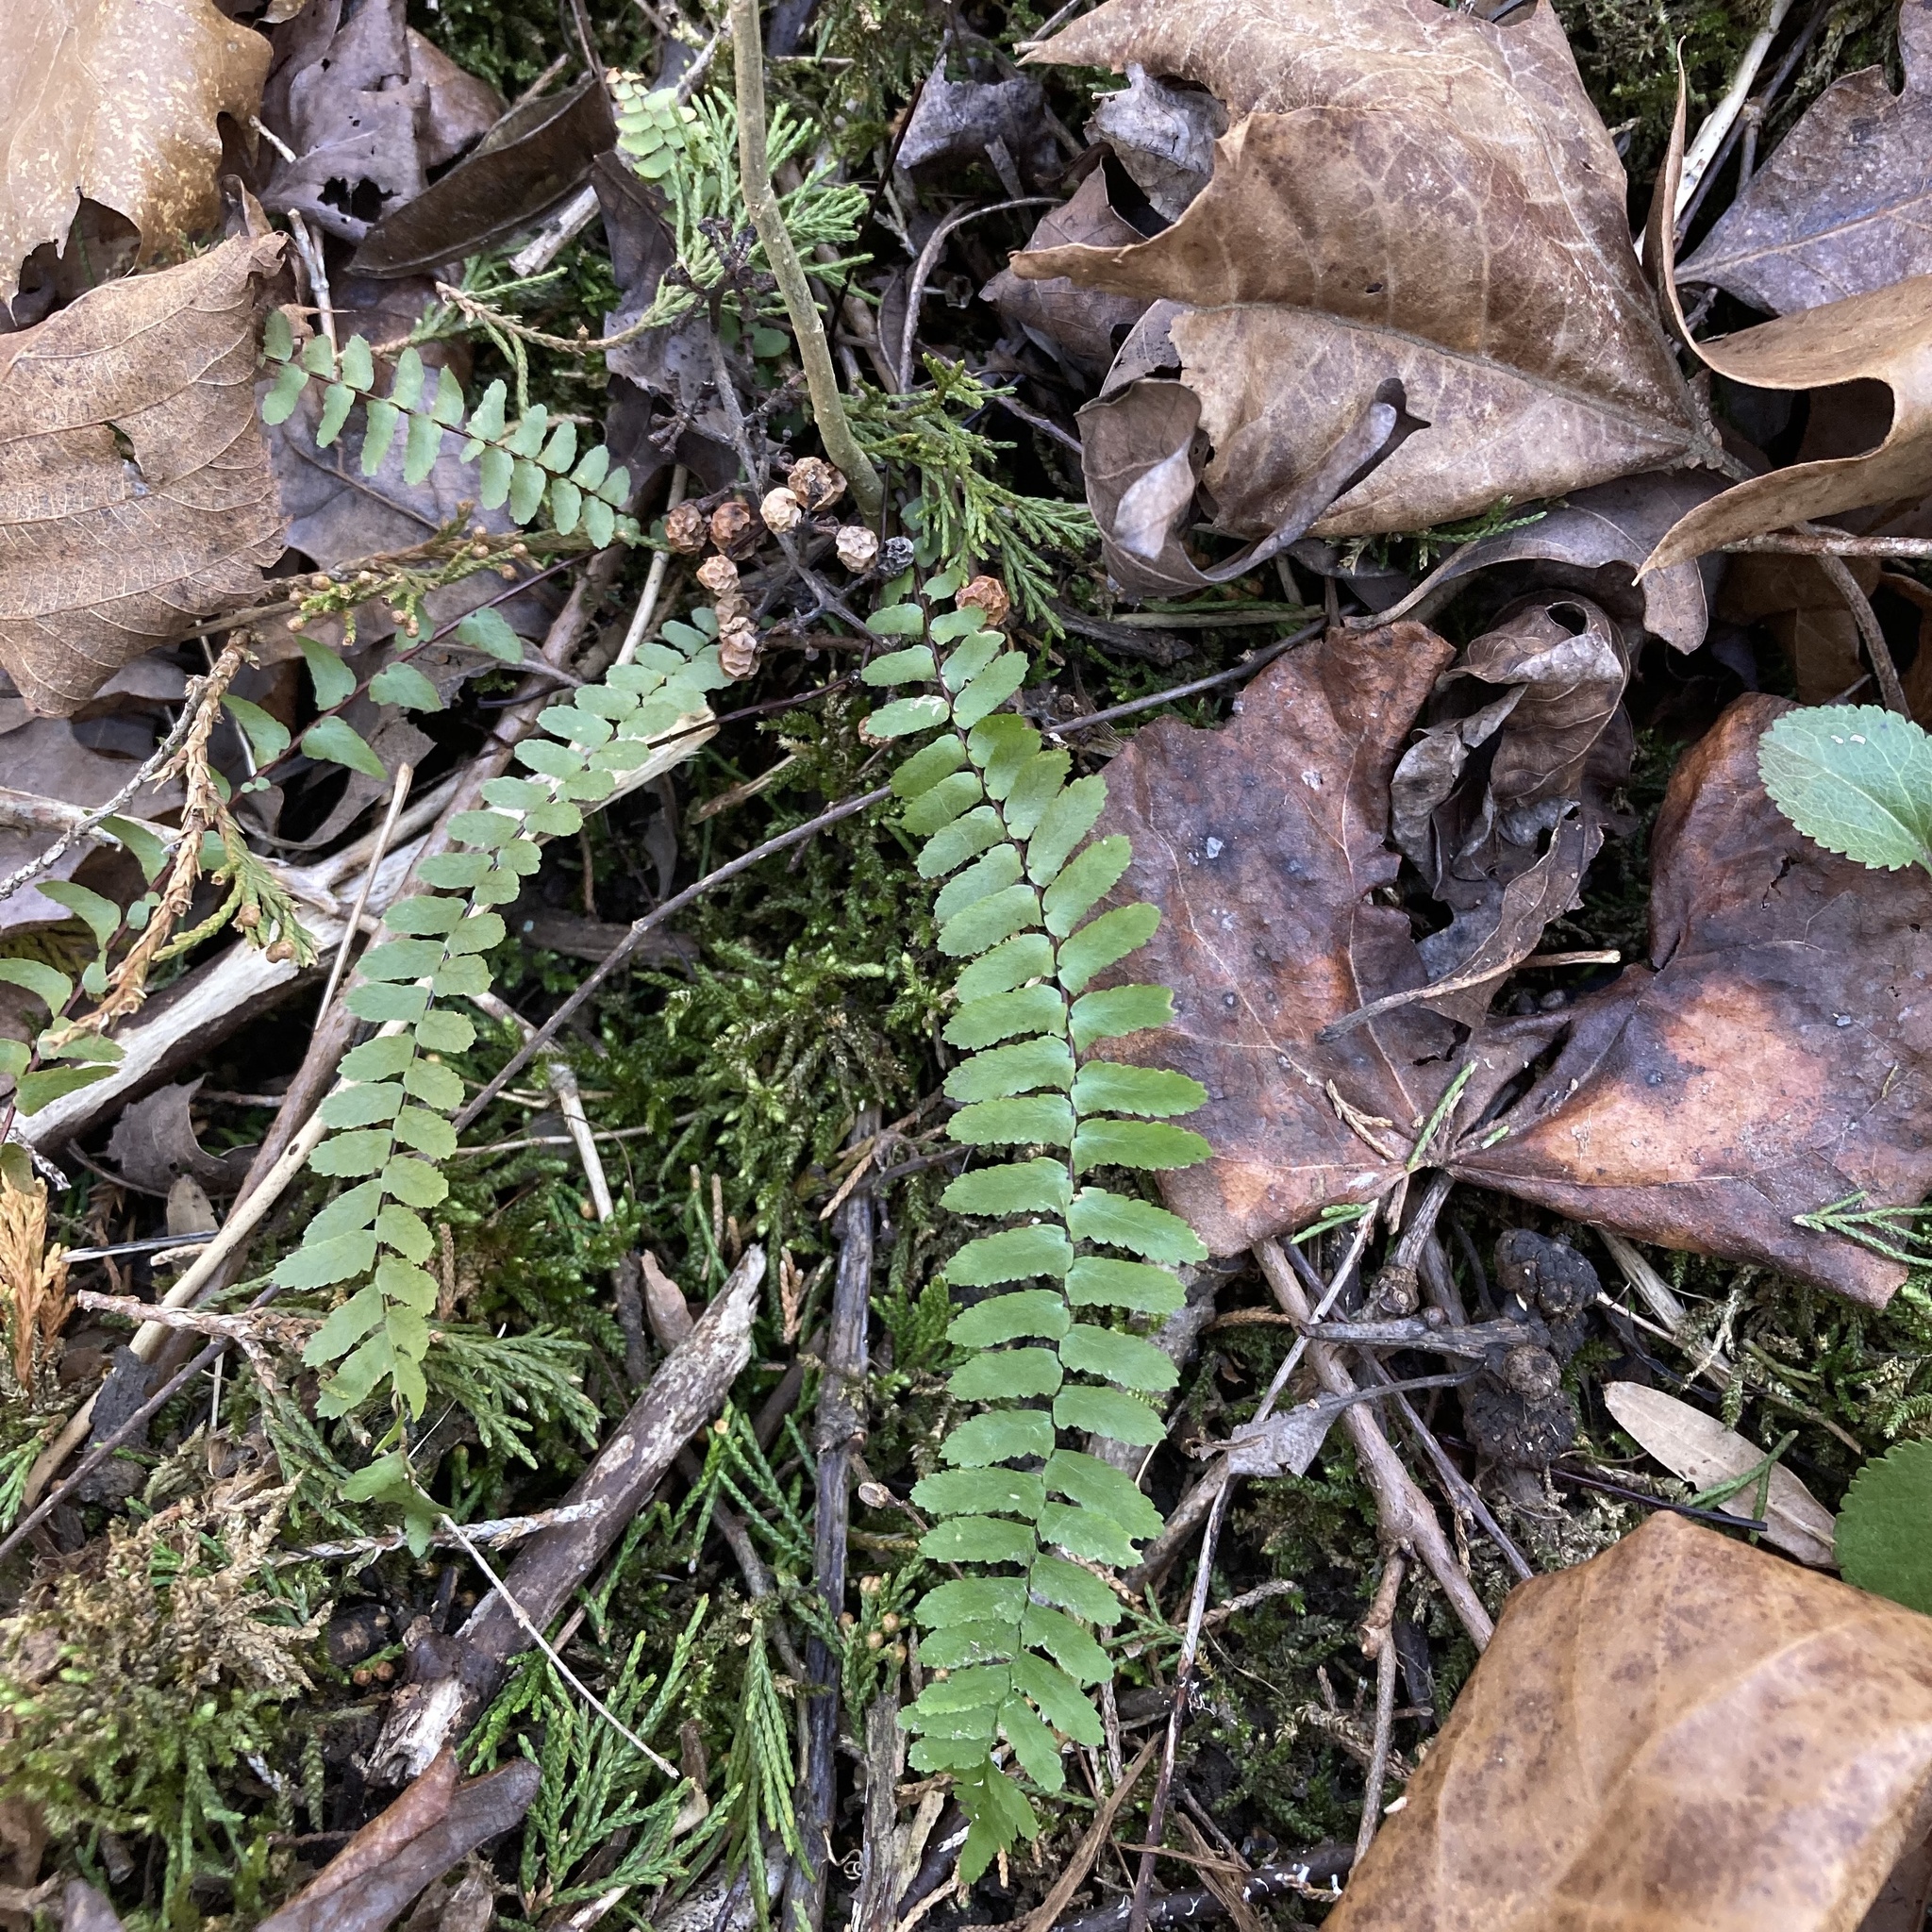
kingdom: Plantae
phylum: Tracheophyta
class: Polypodiopsida
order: Polypodiales
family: Aspleniaceae
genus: Asplenium
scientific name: Asplenium platyneuron
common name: Ebony spleenwort
